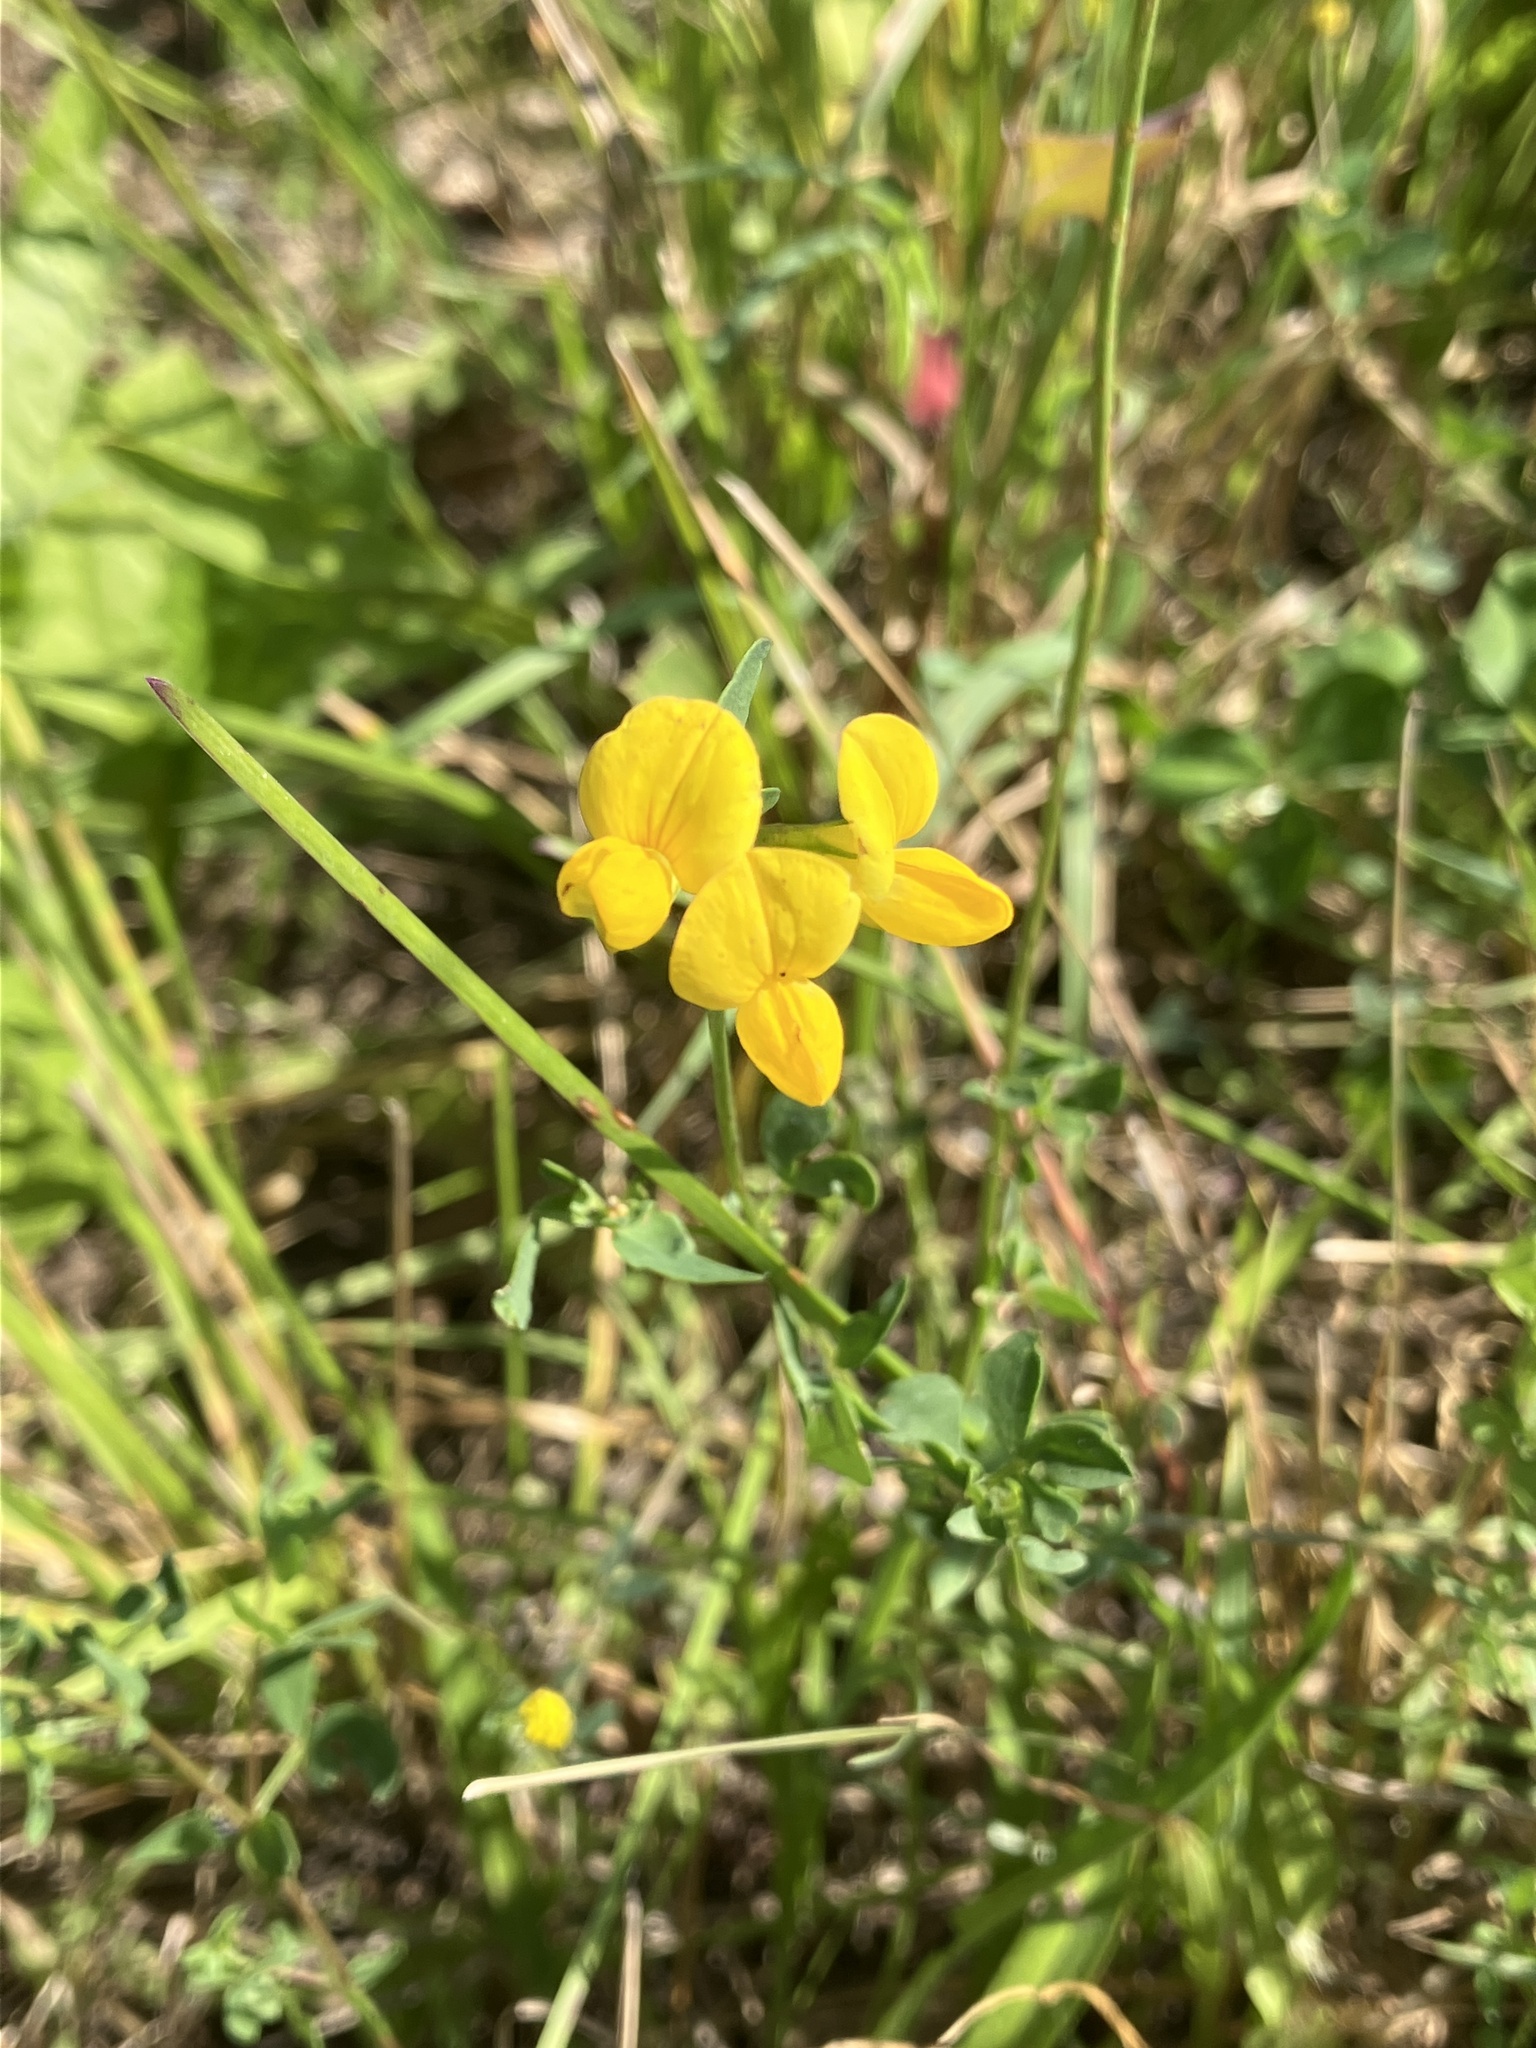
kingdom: Plantae
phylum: Tracheophyta
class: Magnoliopsida
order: Fabales
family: Fabaceae
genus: Lotus
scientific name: Lotus corniculatus
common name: Common bird's-foot-trefoil
